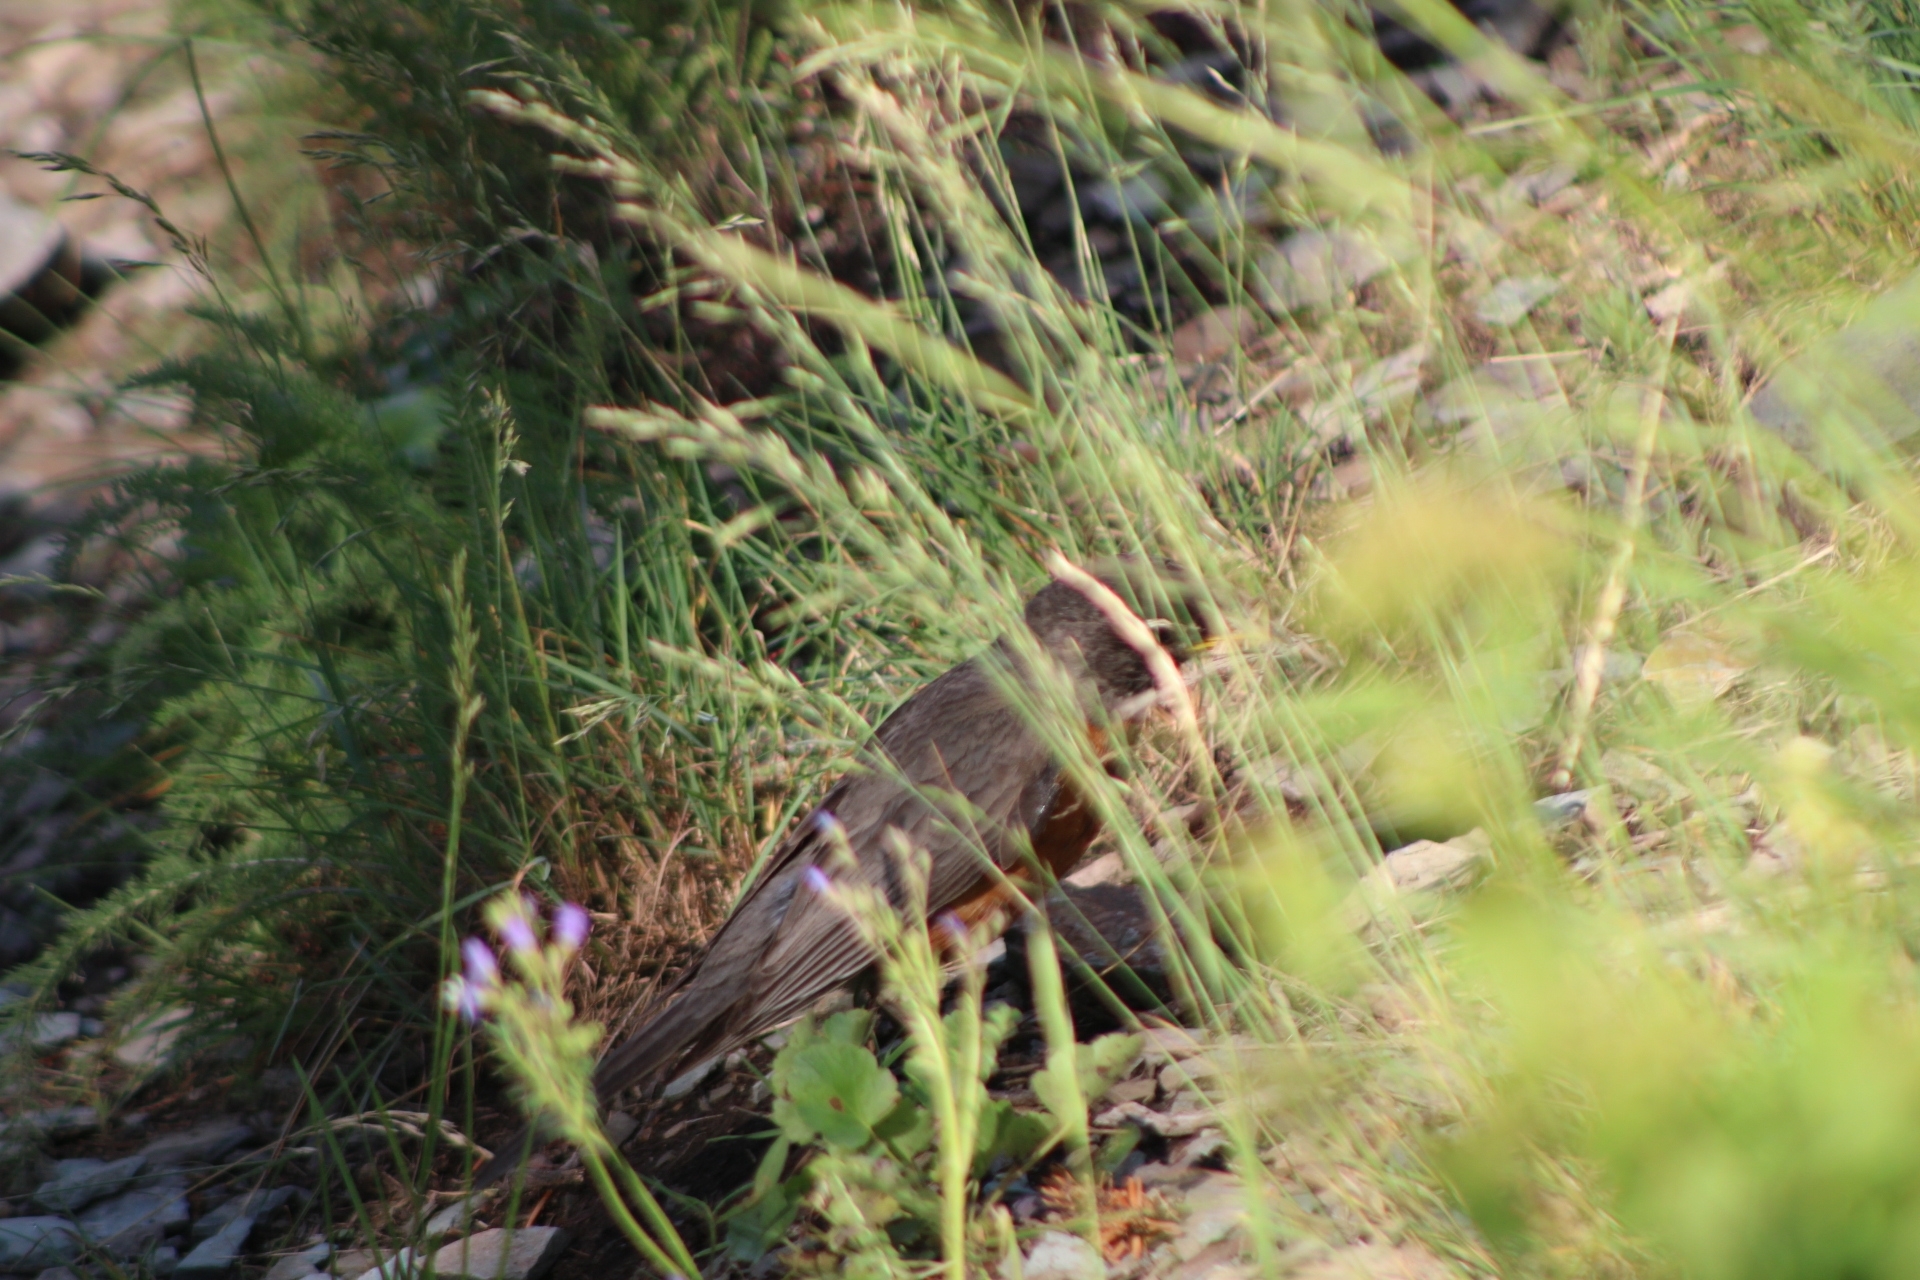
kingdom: Animalia
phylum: Chordata
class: Aves
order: Passeriformes
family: Turdidae
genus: Turdus
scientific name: Turdus migratorius
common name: American robin
